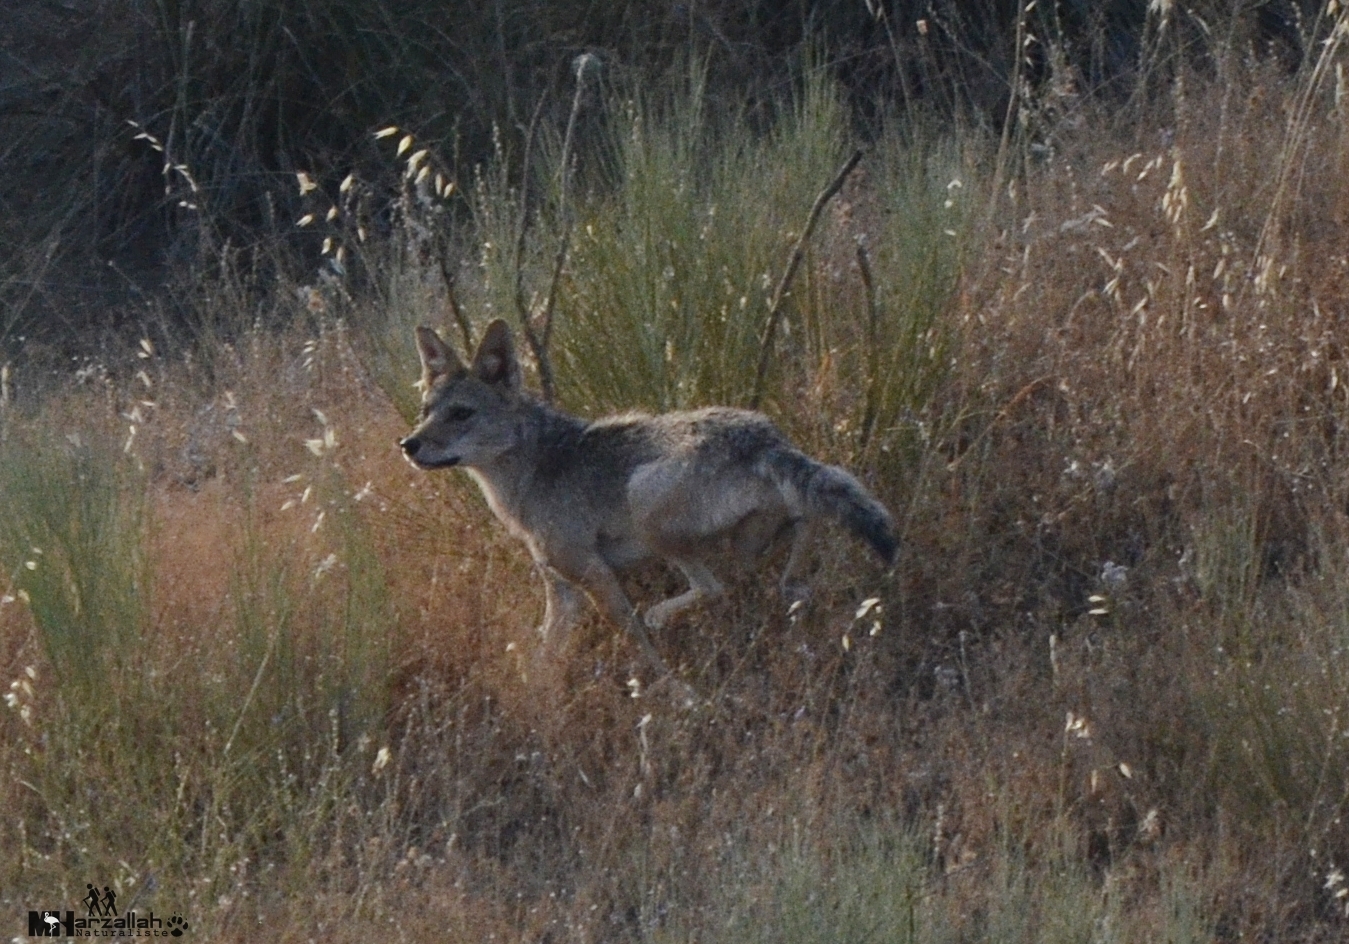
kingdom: Animalia
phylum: Chordata
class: Mammalia
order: Carnivora
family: Canidae
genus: Canis
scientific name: Canis lupaster
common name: African golden wolf
